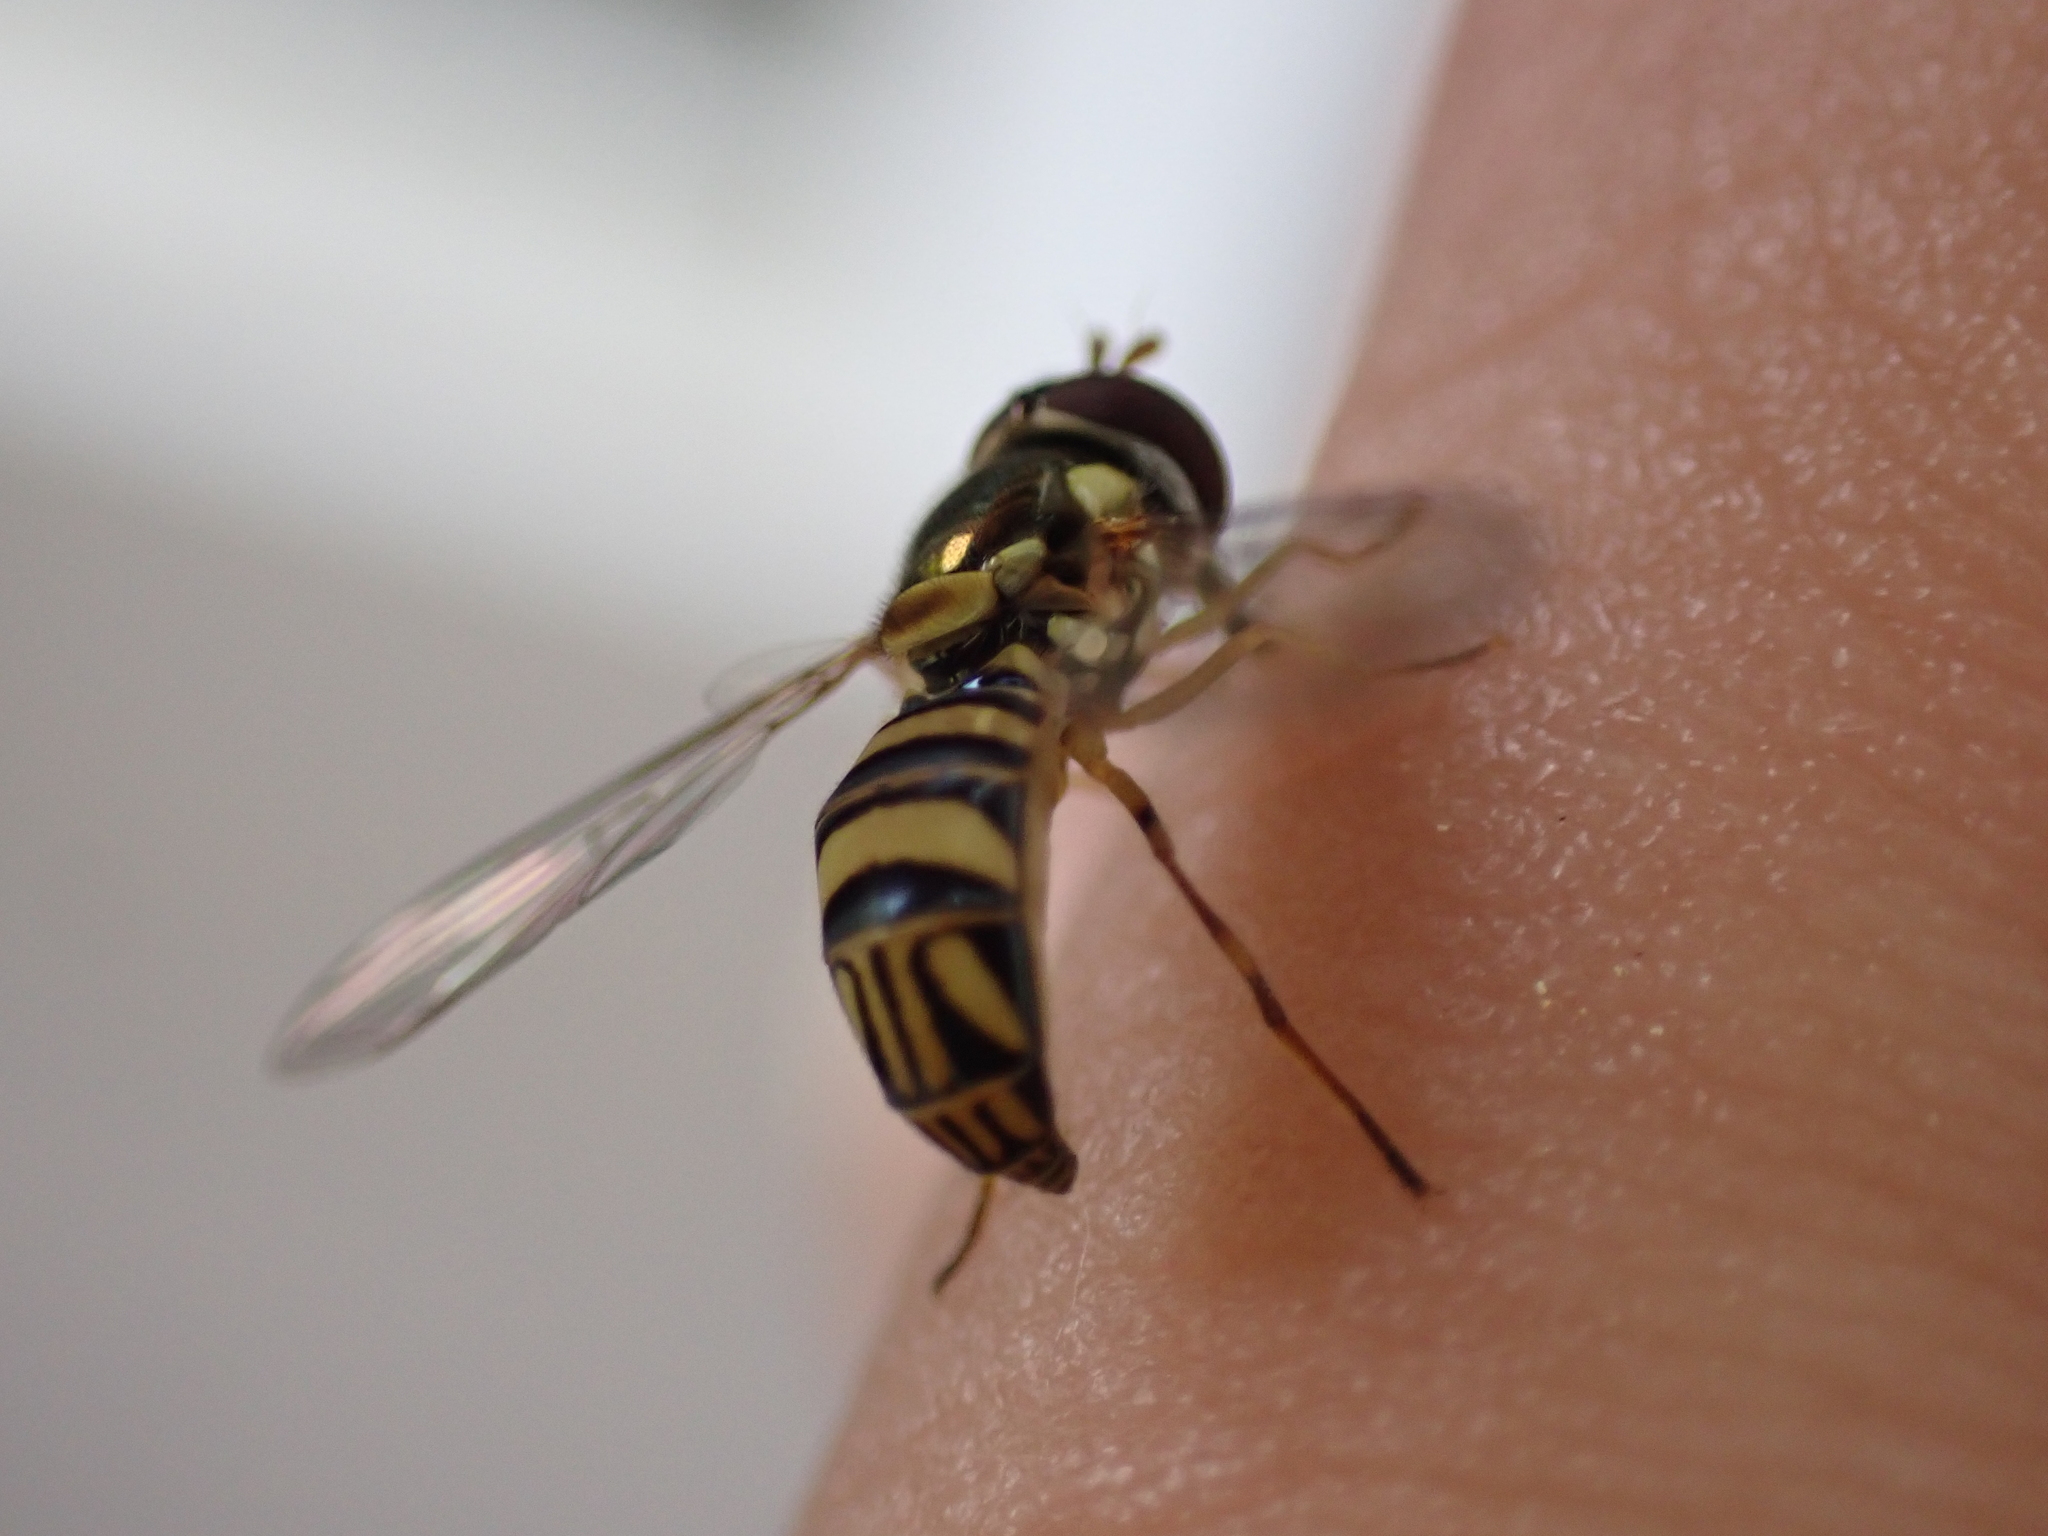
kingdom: Animalia
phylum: Arthropoda
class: Insecta
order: Diptera
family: Syrphidae
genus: Allograpta
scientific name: Allograpta obliqua
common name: Common oblique syrphid
